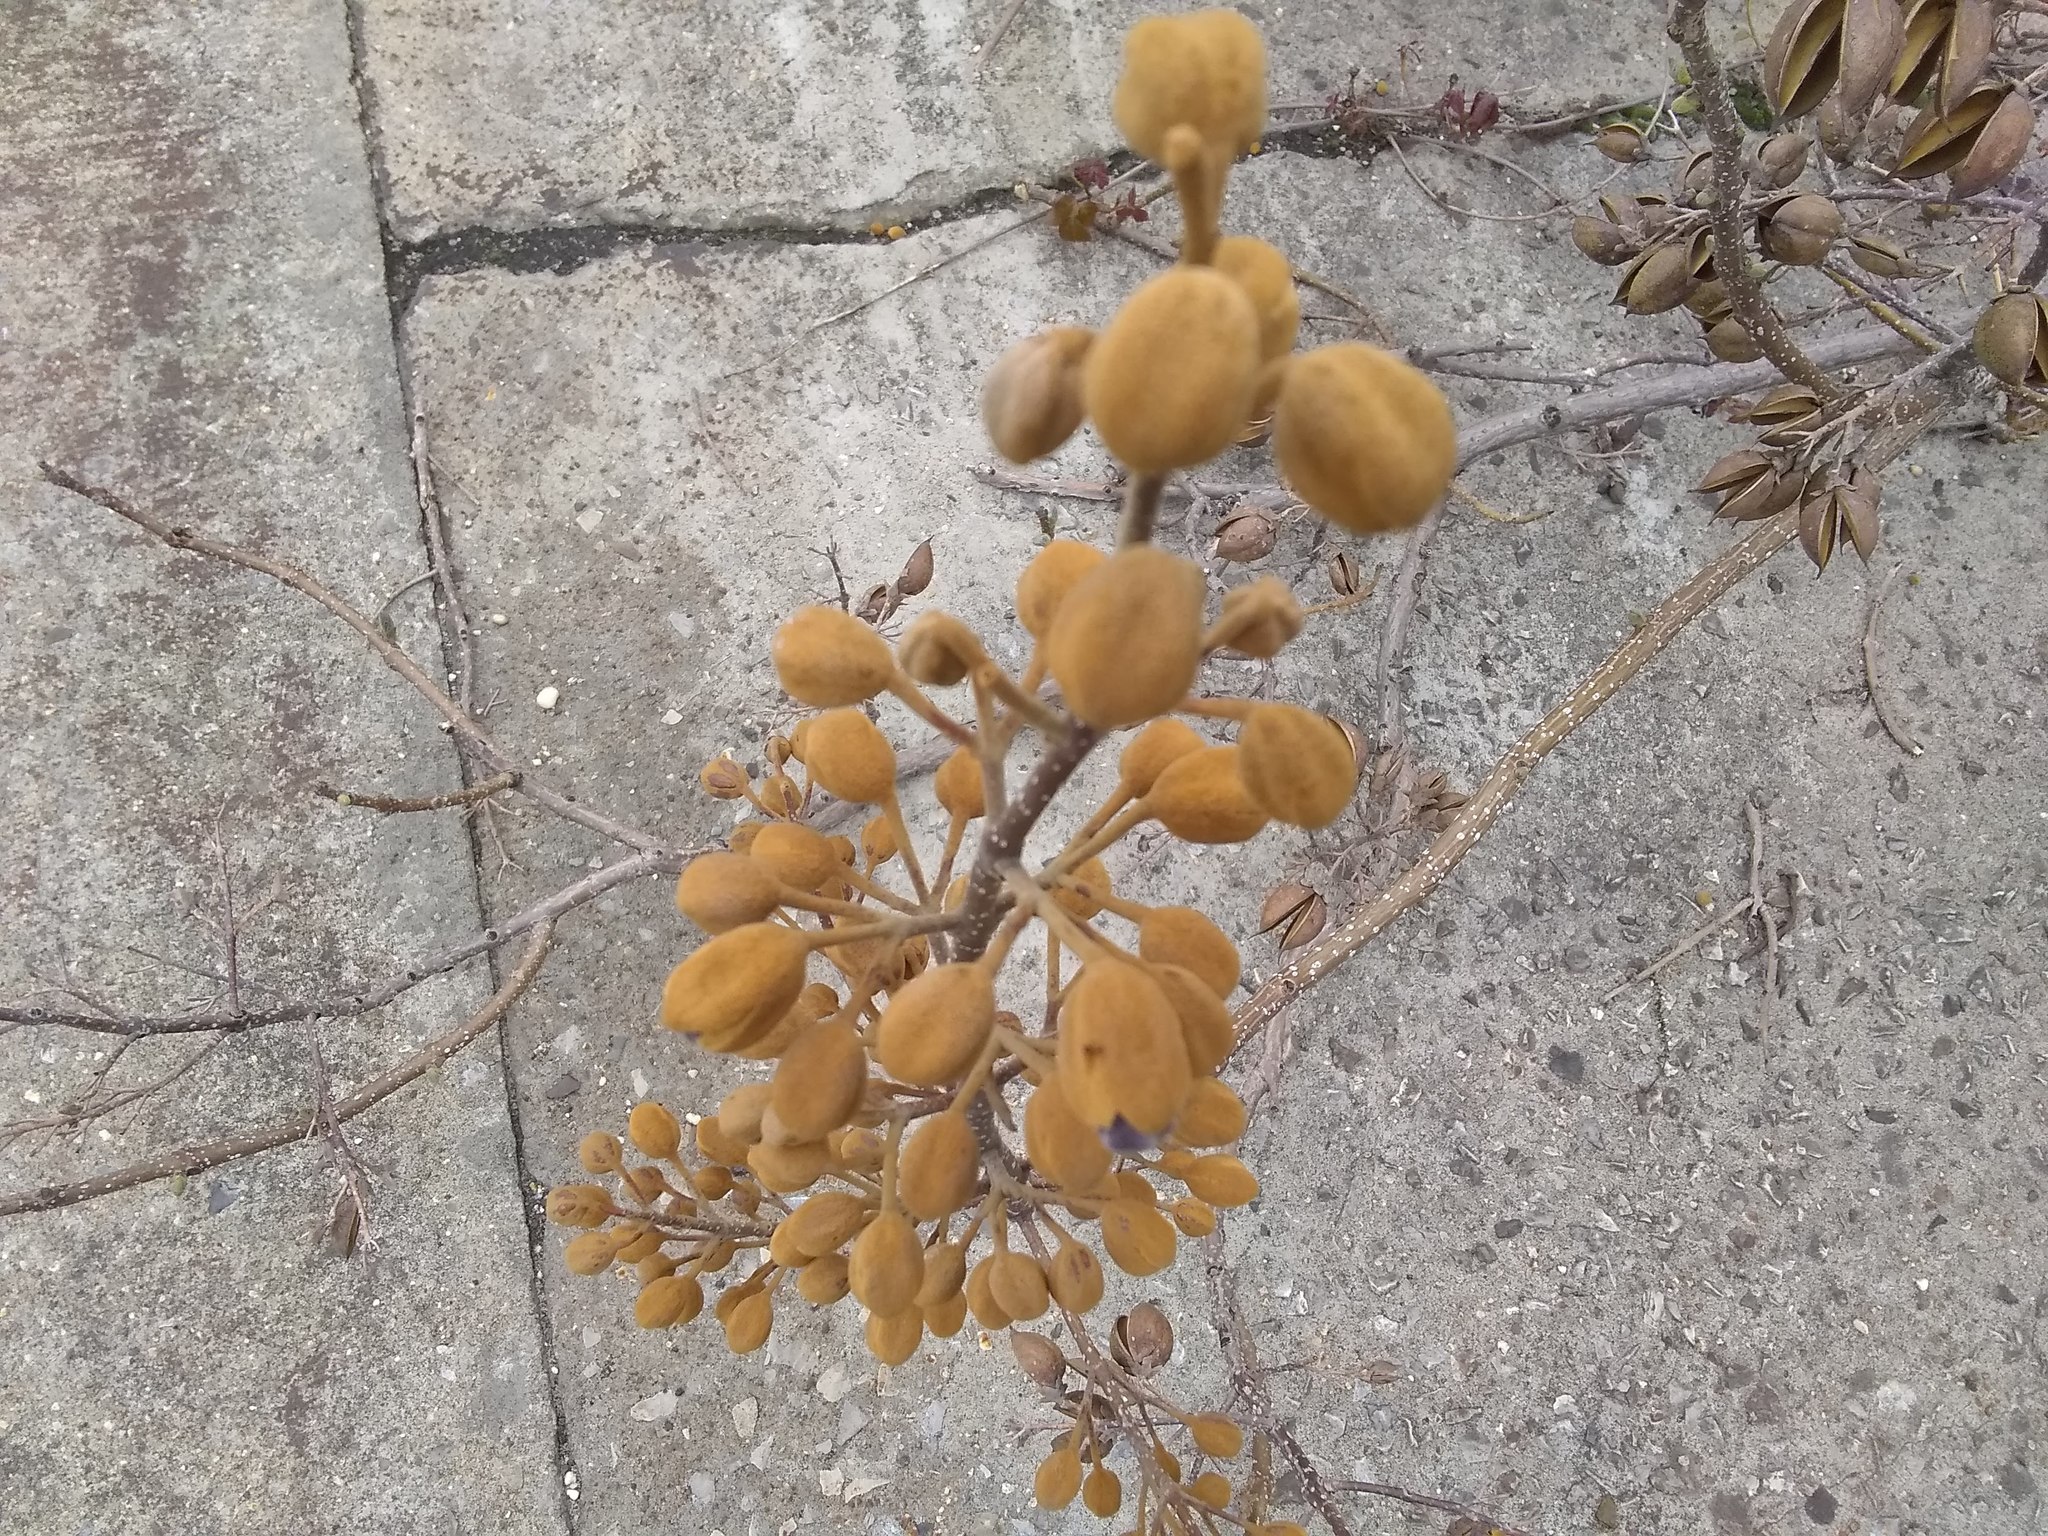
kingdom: Plantae
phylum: Tracheophyta
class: Magnoliopsida
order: Lamiales
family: Paulowniaceae
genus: Paulownia
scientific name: Paulownia tomentosa
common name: Foxglove-tree
